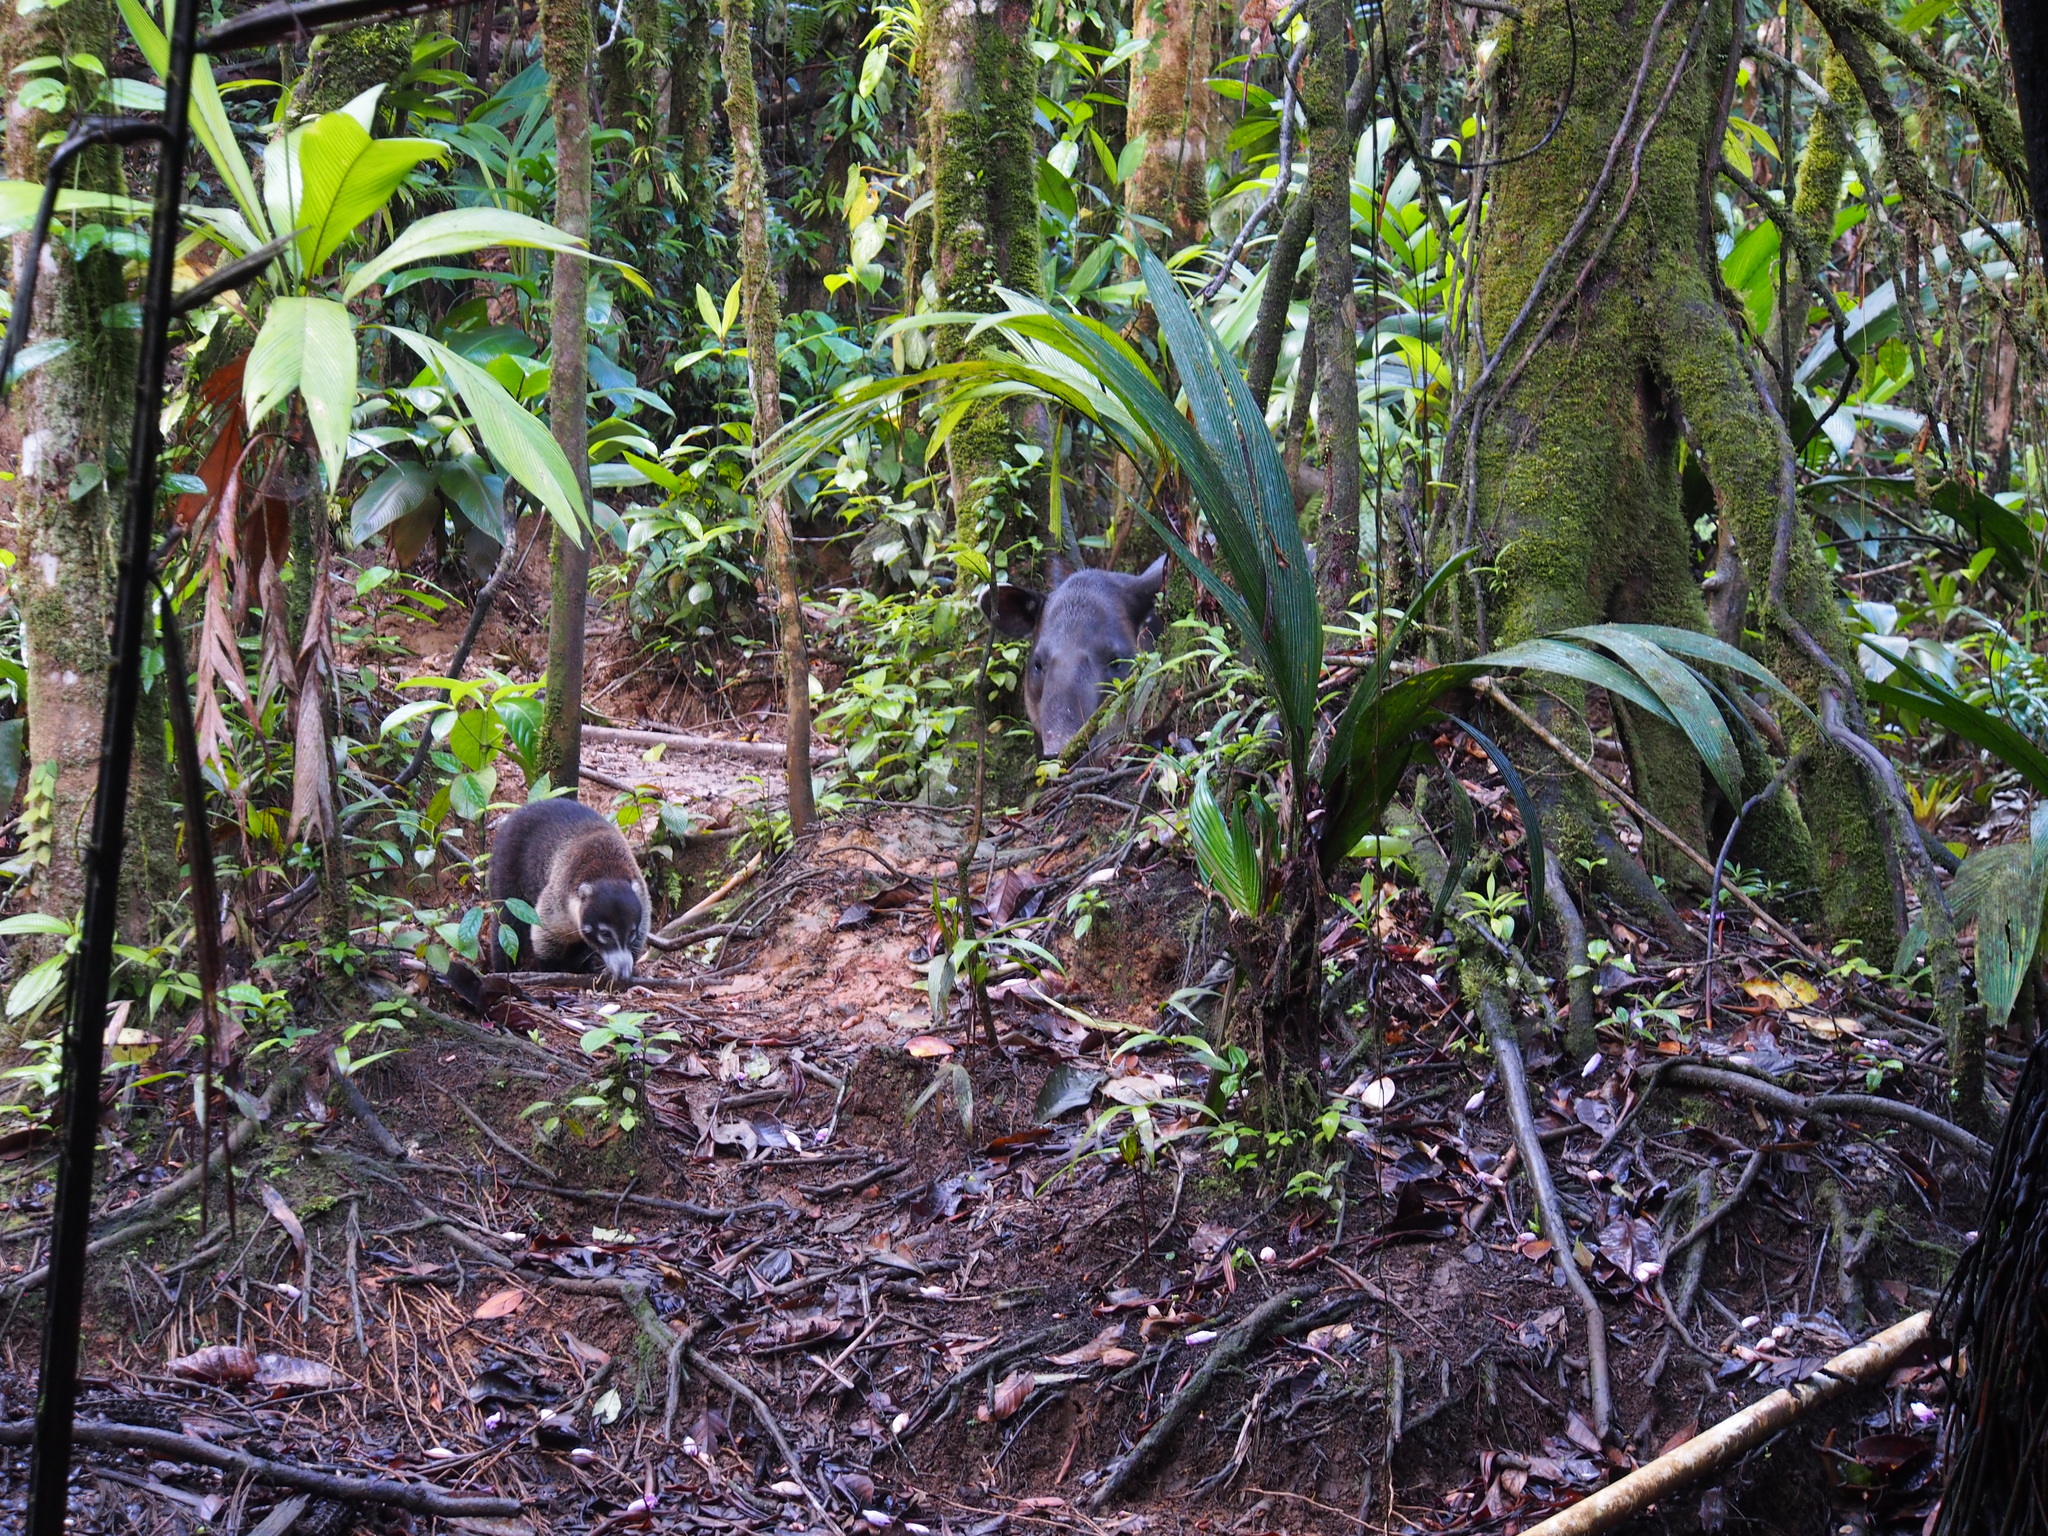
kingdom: Animalia
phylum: Chordata
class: Mammalia
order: Perissodactyla
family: Tapiridae
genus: Tapirella
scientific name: Tapirella bairdii
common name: Baird's tapir
